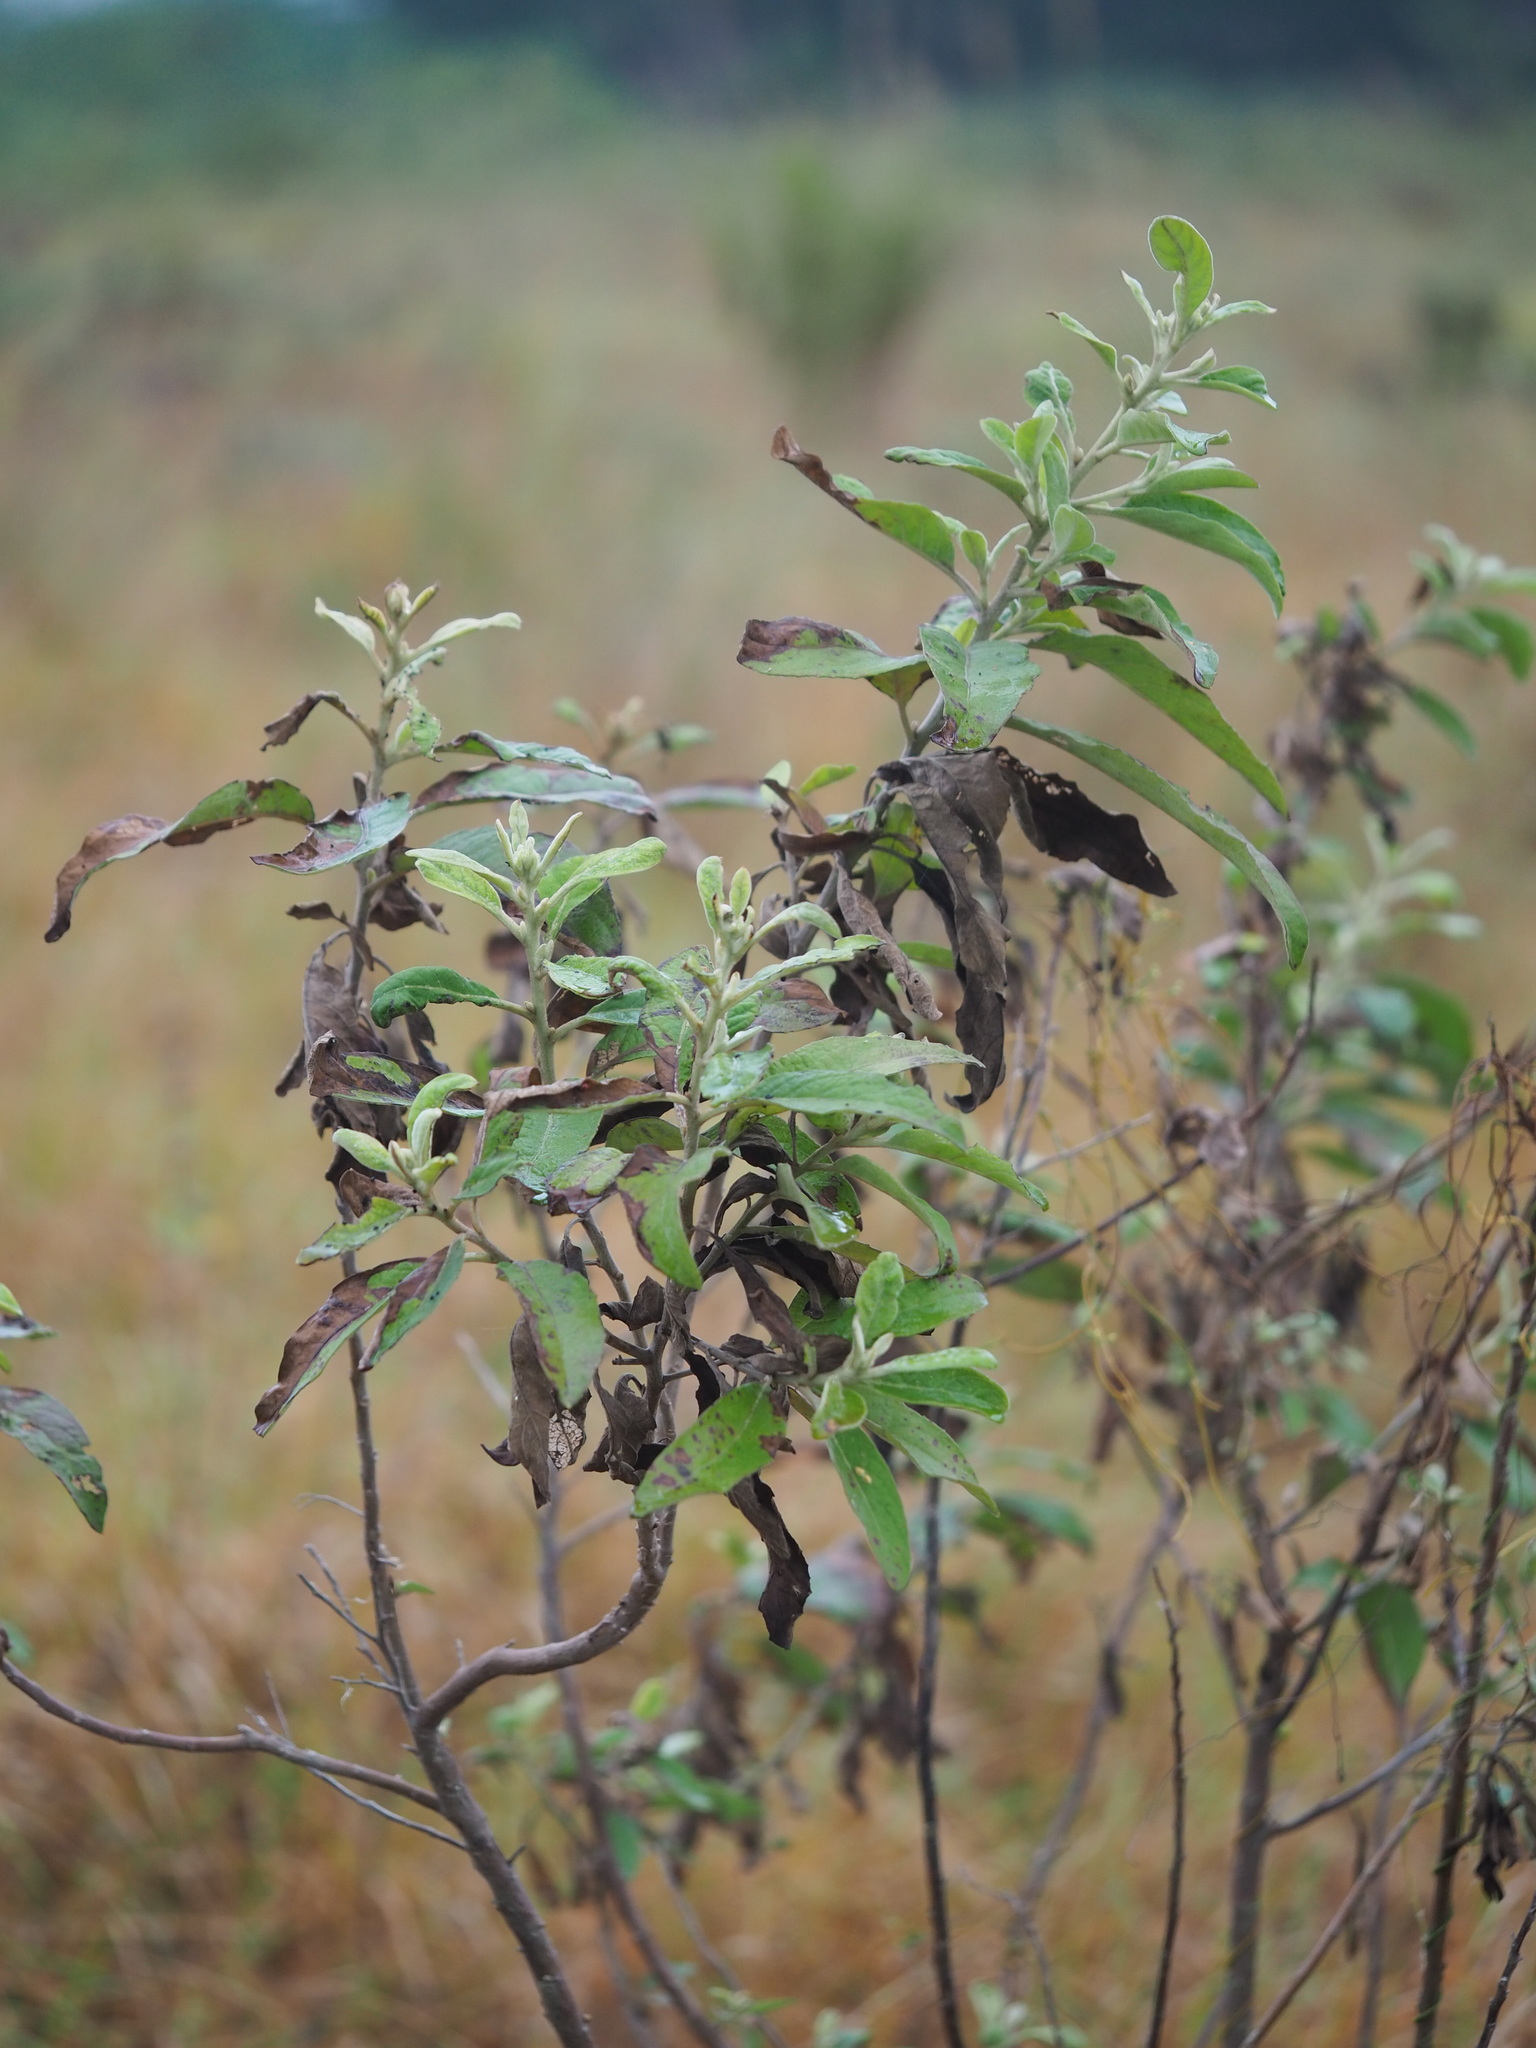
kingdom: Plantae
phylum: Tracheophyta
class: Magnoliopsida
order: Asterales
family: Asteraceae
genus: Pluchea
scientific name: Pluchea carolinensis
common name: Marsh fleabane
